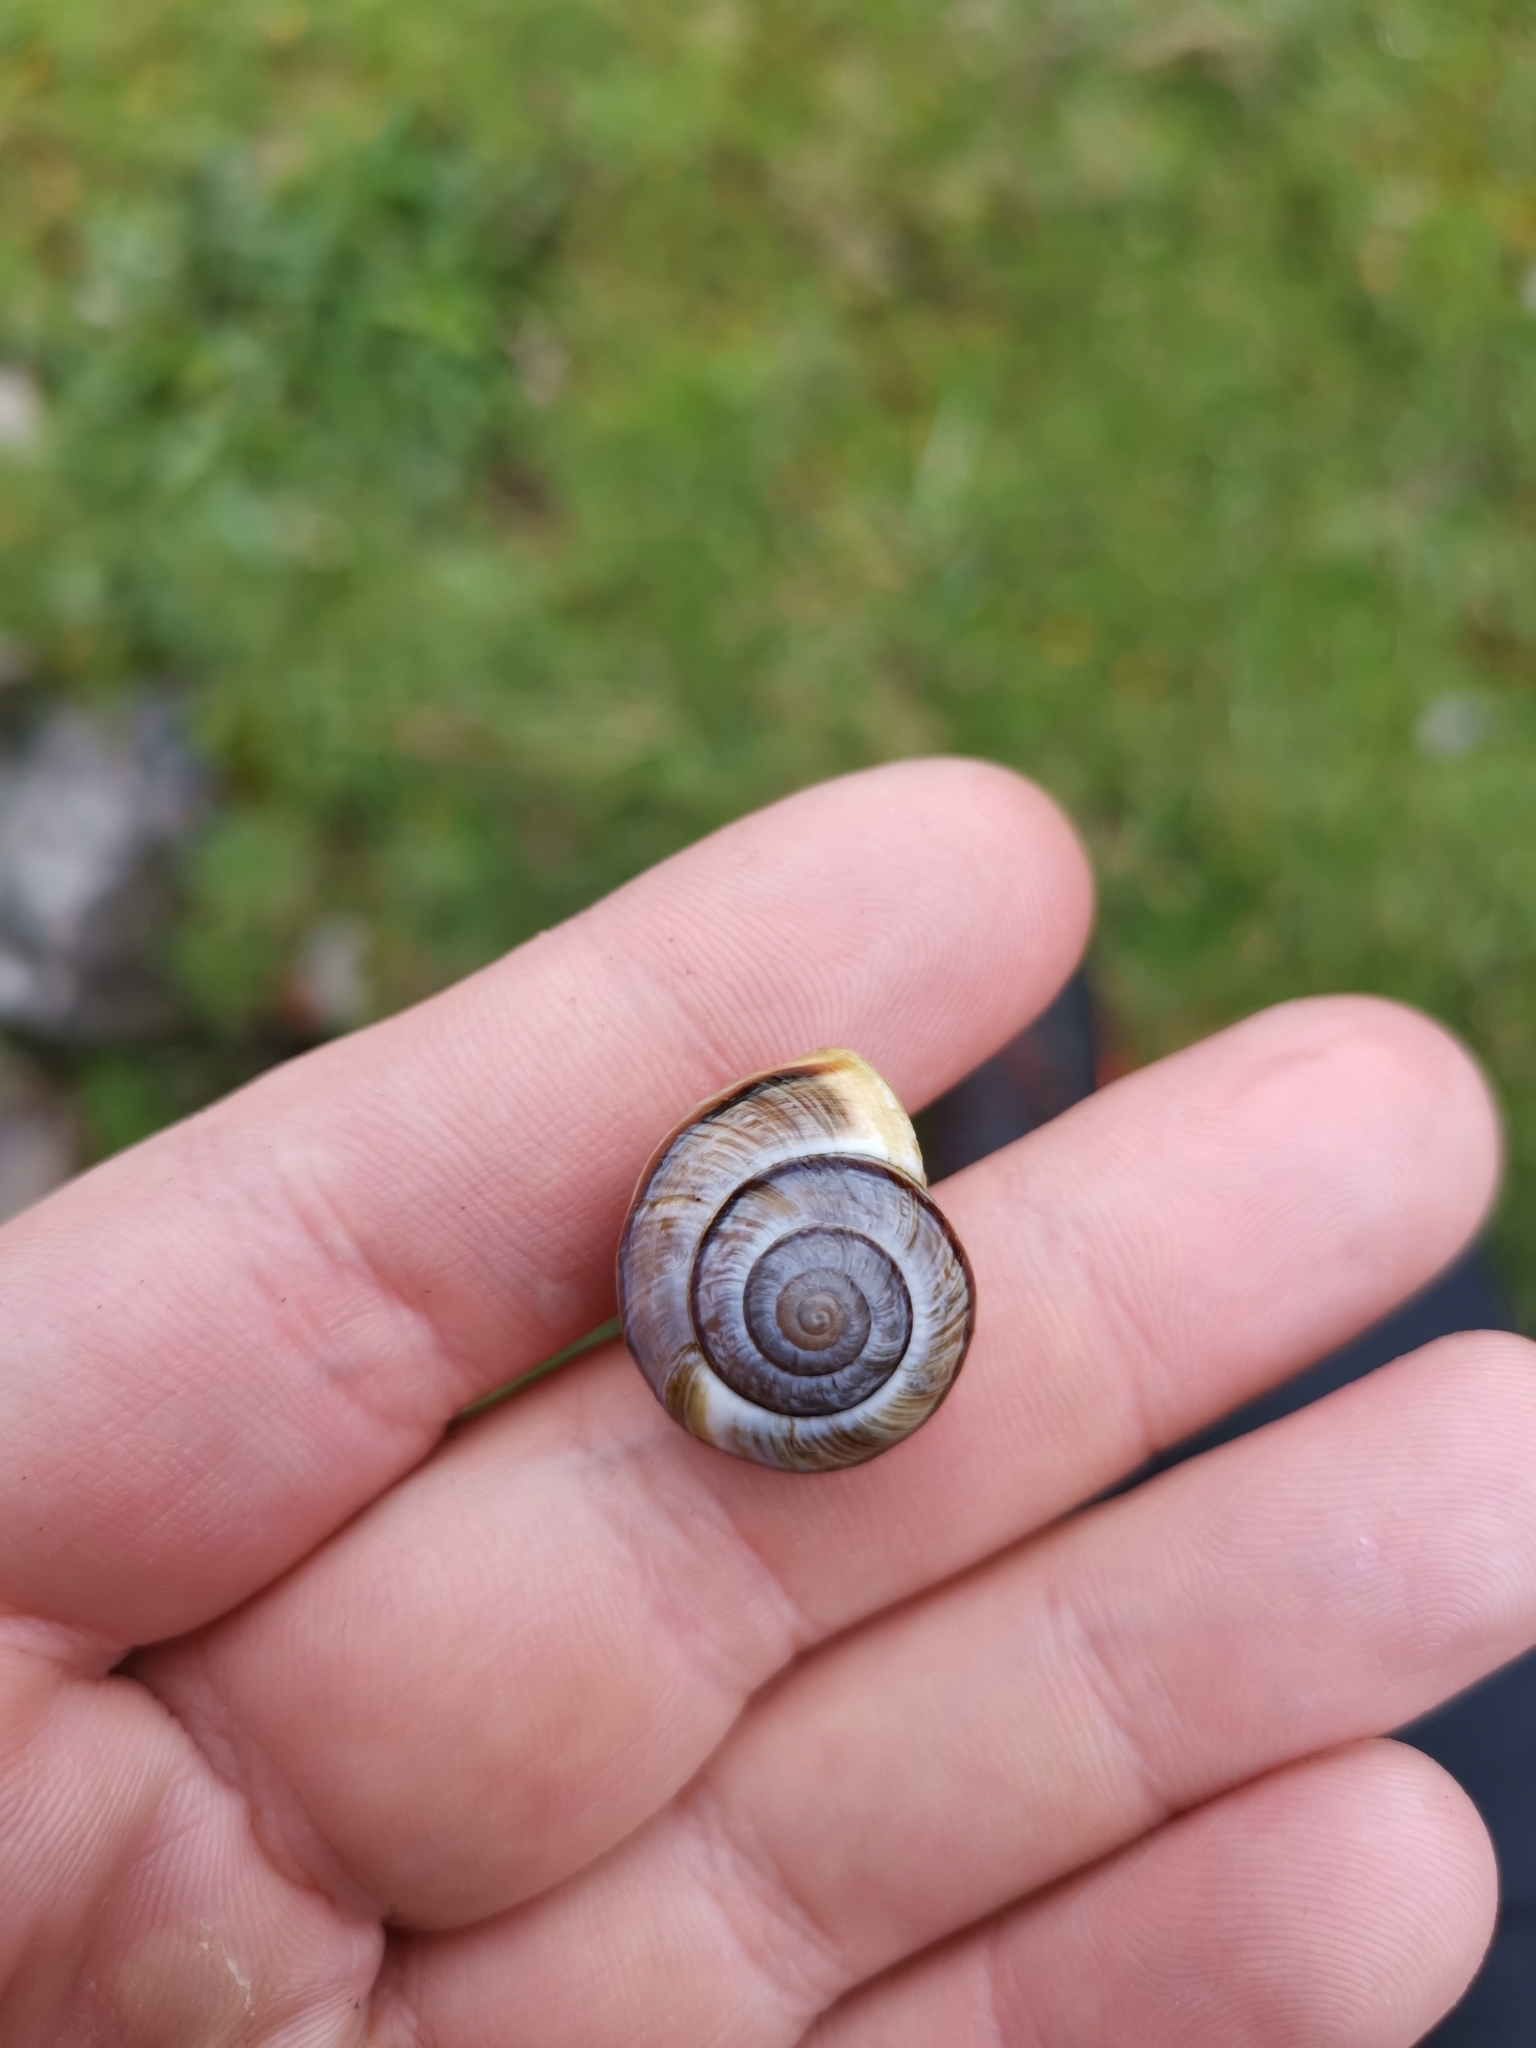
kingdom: Animalia
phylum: Mollusca
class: Gastropoda
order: Stylommatophora
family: Helicidae
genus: Arianta
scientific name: Arianta arbustorum
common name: Copse snail
